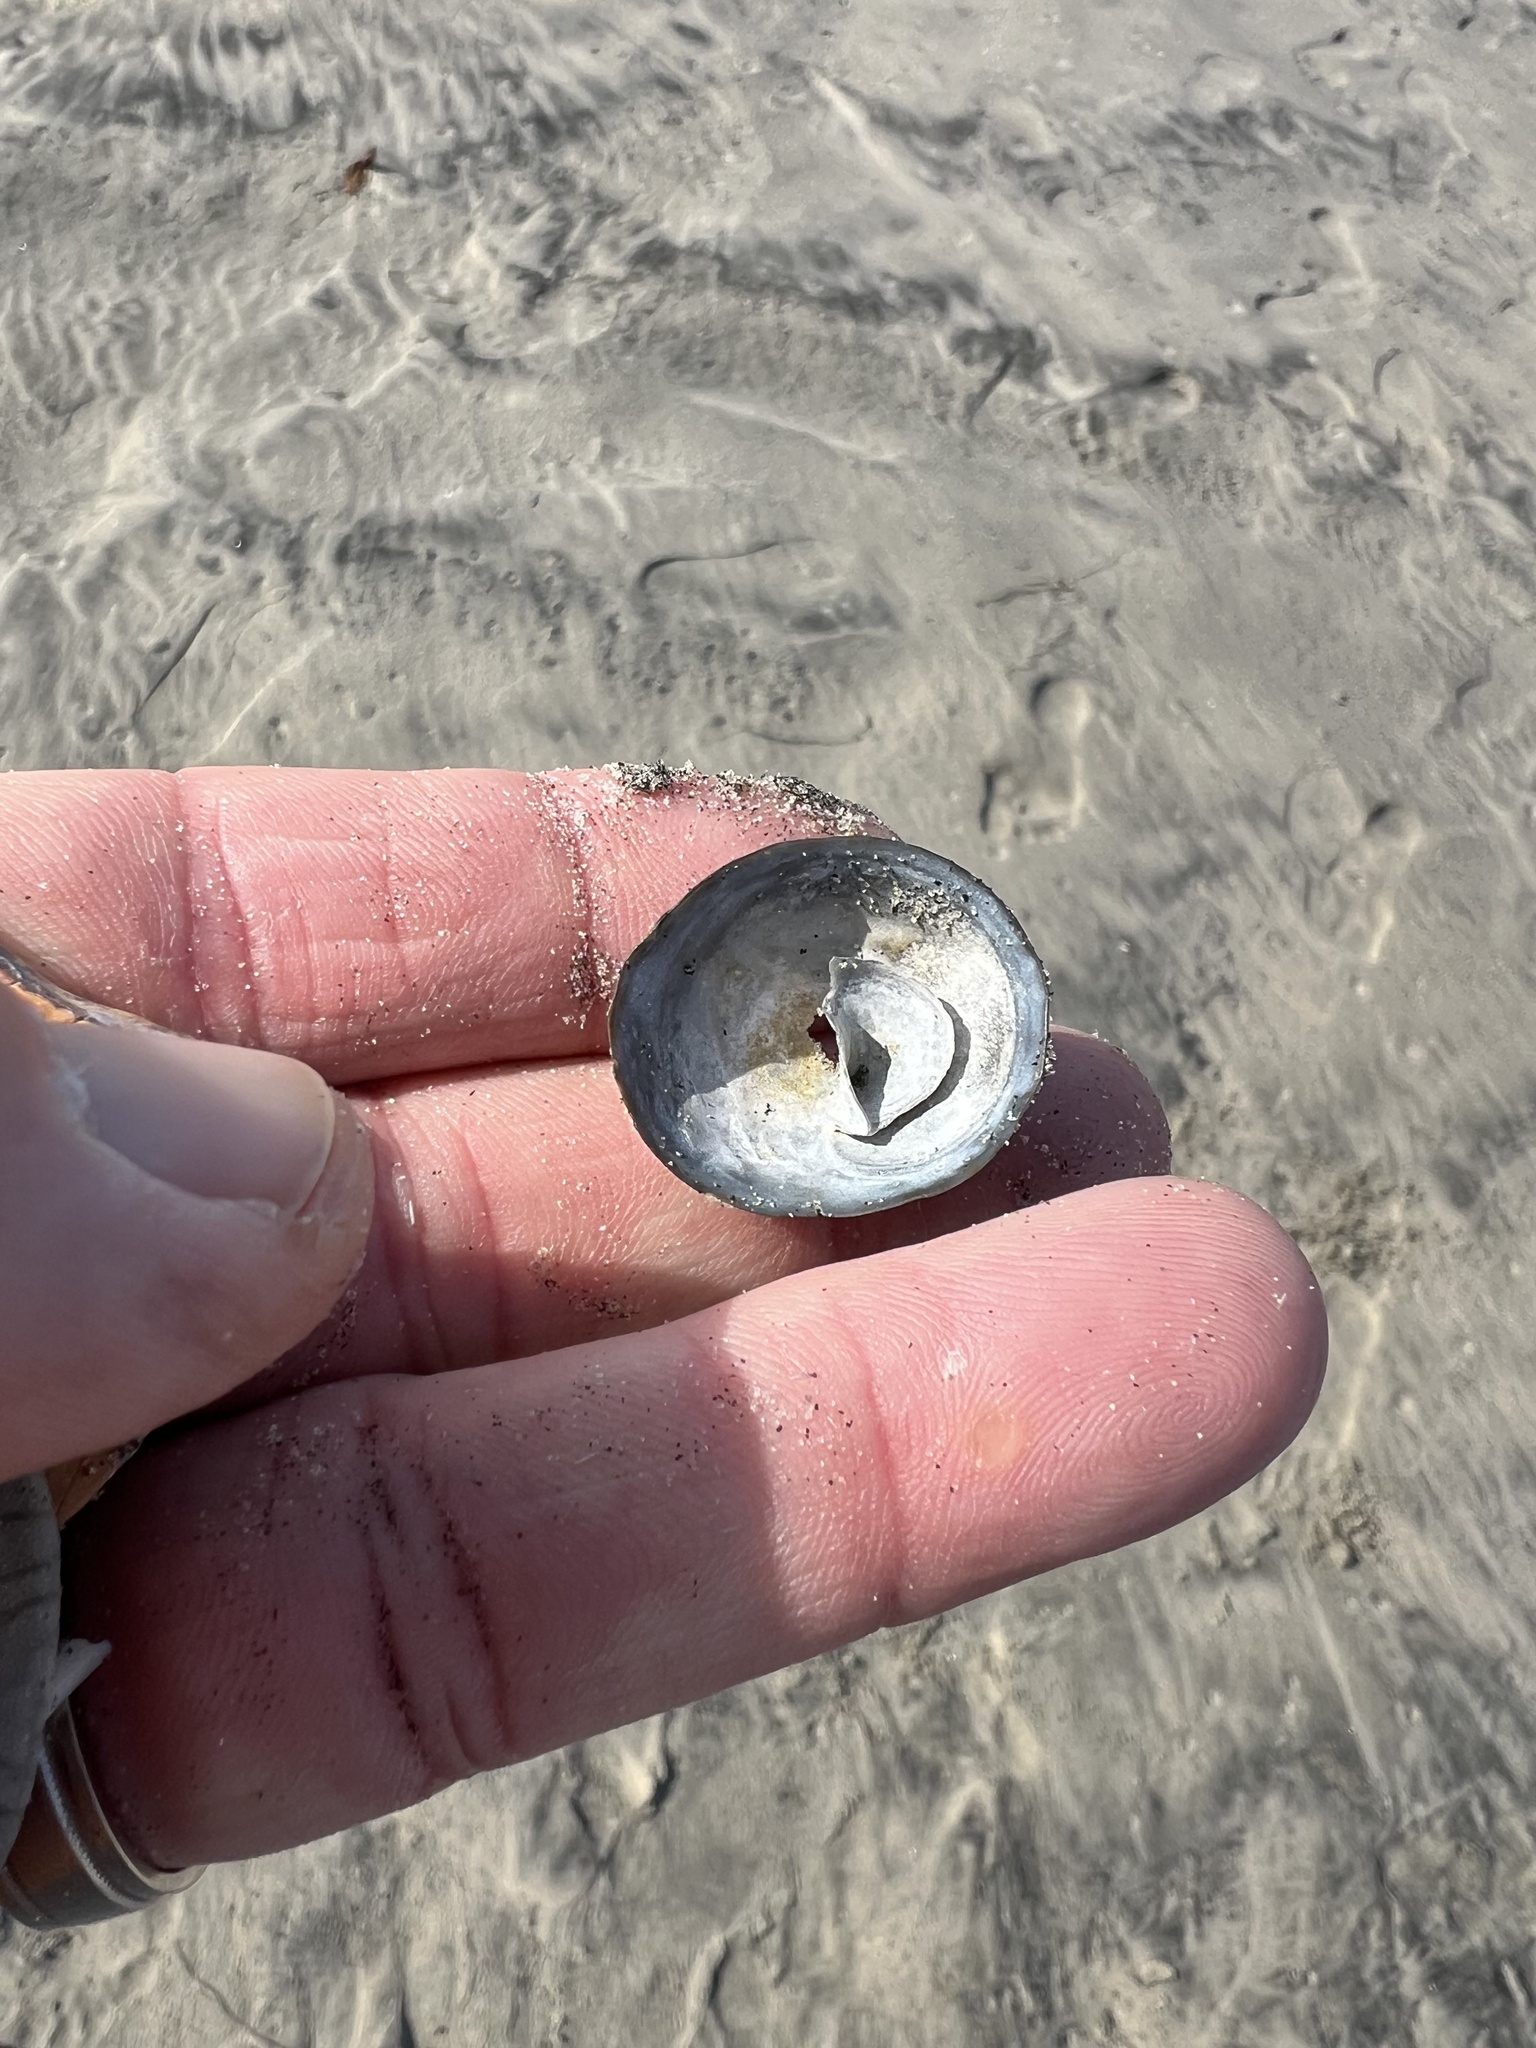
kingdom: Animalia
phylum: Mollusca
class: Gastropoda
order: Littorinimorpha
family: Calyptraeidae
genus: Crucibulum
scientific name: Crucibulum spinosum
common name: Spiny cup-and-saucer
